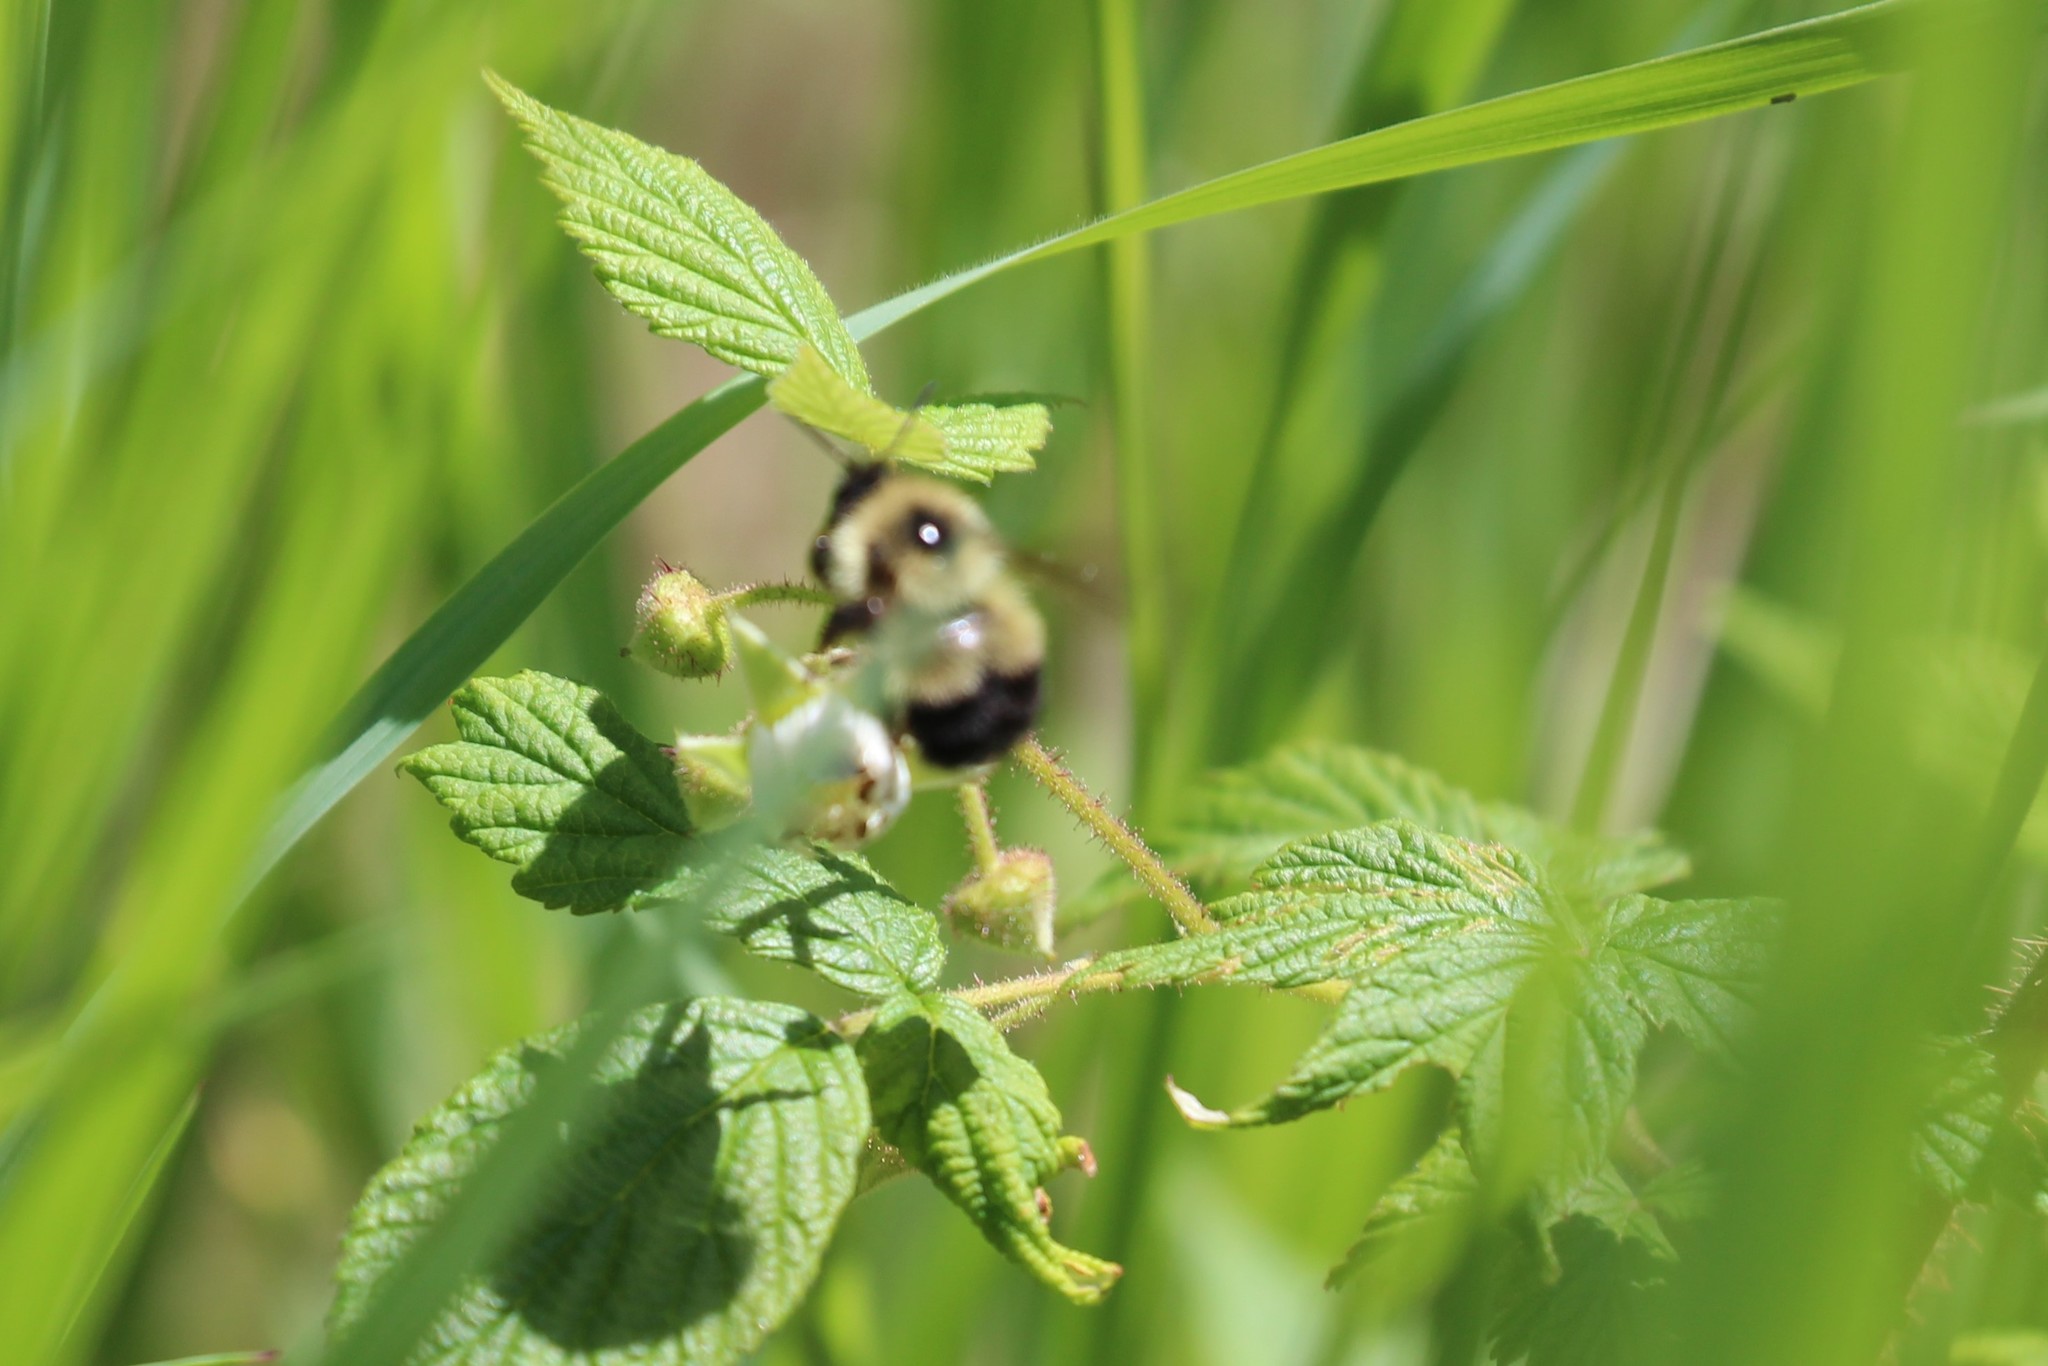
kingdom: Animalia
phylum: Arthropoda
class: Insecta
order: Hymenoptera
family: Apidae
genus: Pyrobombus
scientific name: Pyrobombus
